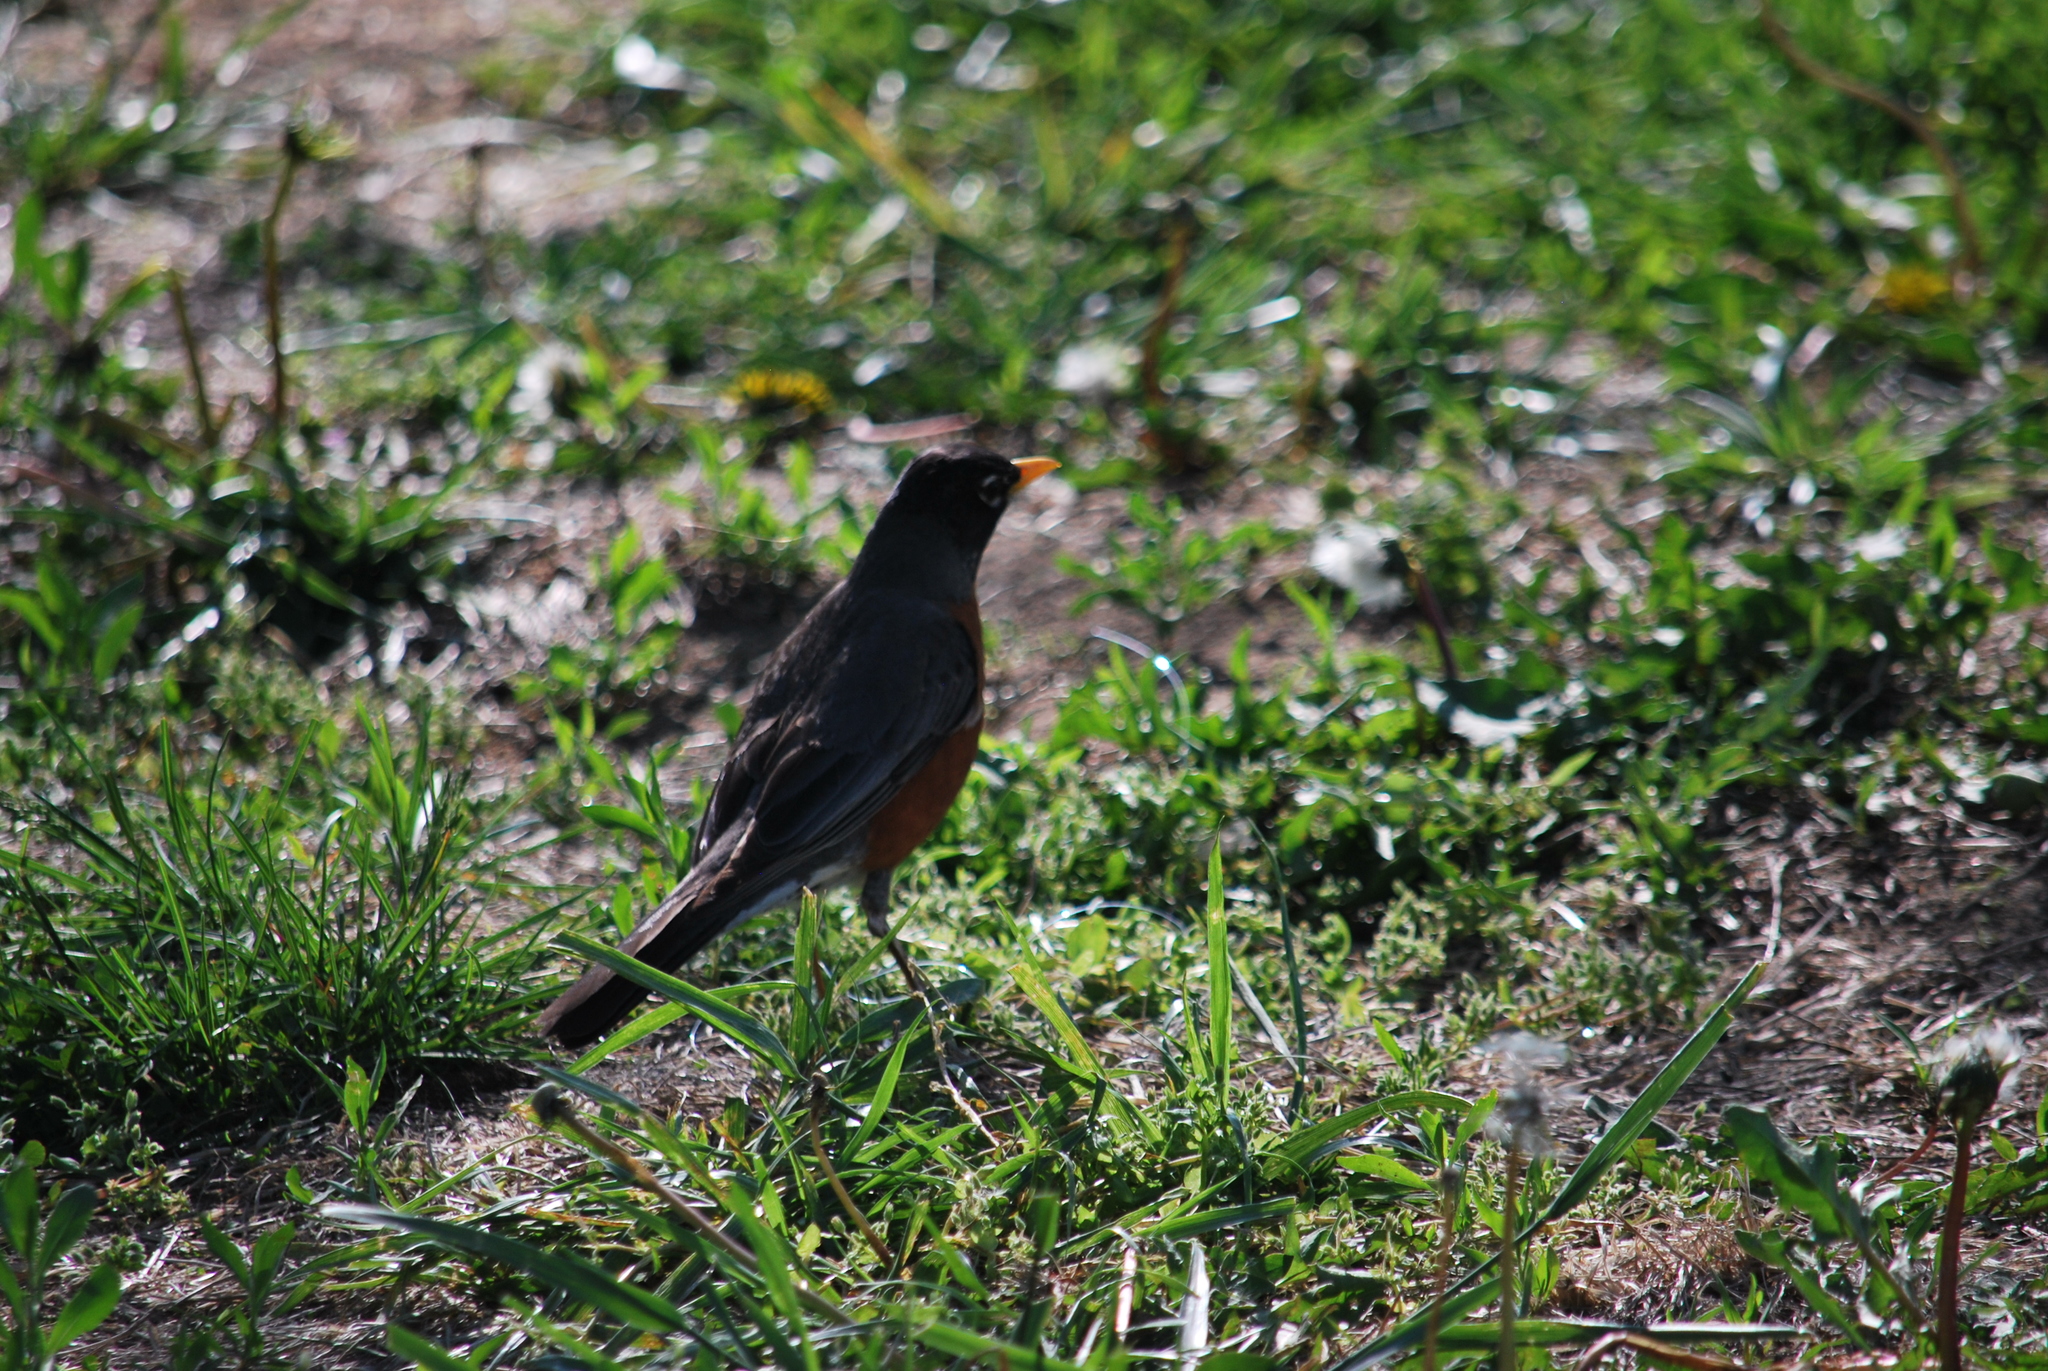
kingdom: Animalia
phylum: Chordata
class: Aves
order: Passeriformes
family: Turdidae
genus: Turdus
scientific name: Turdus migratorius
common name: American robin
